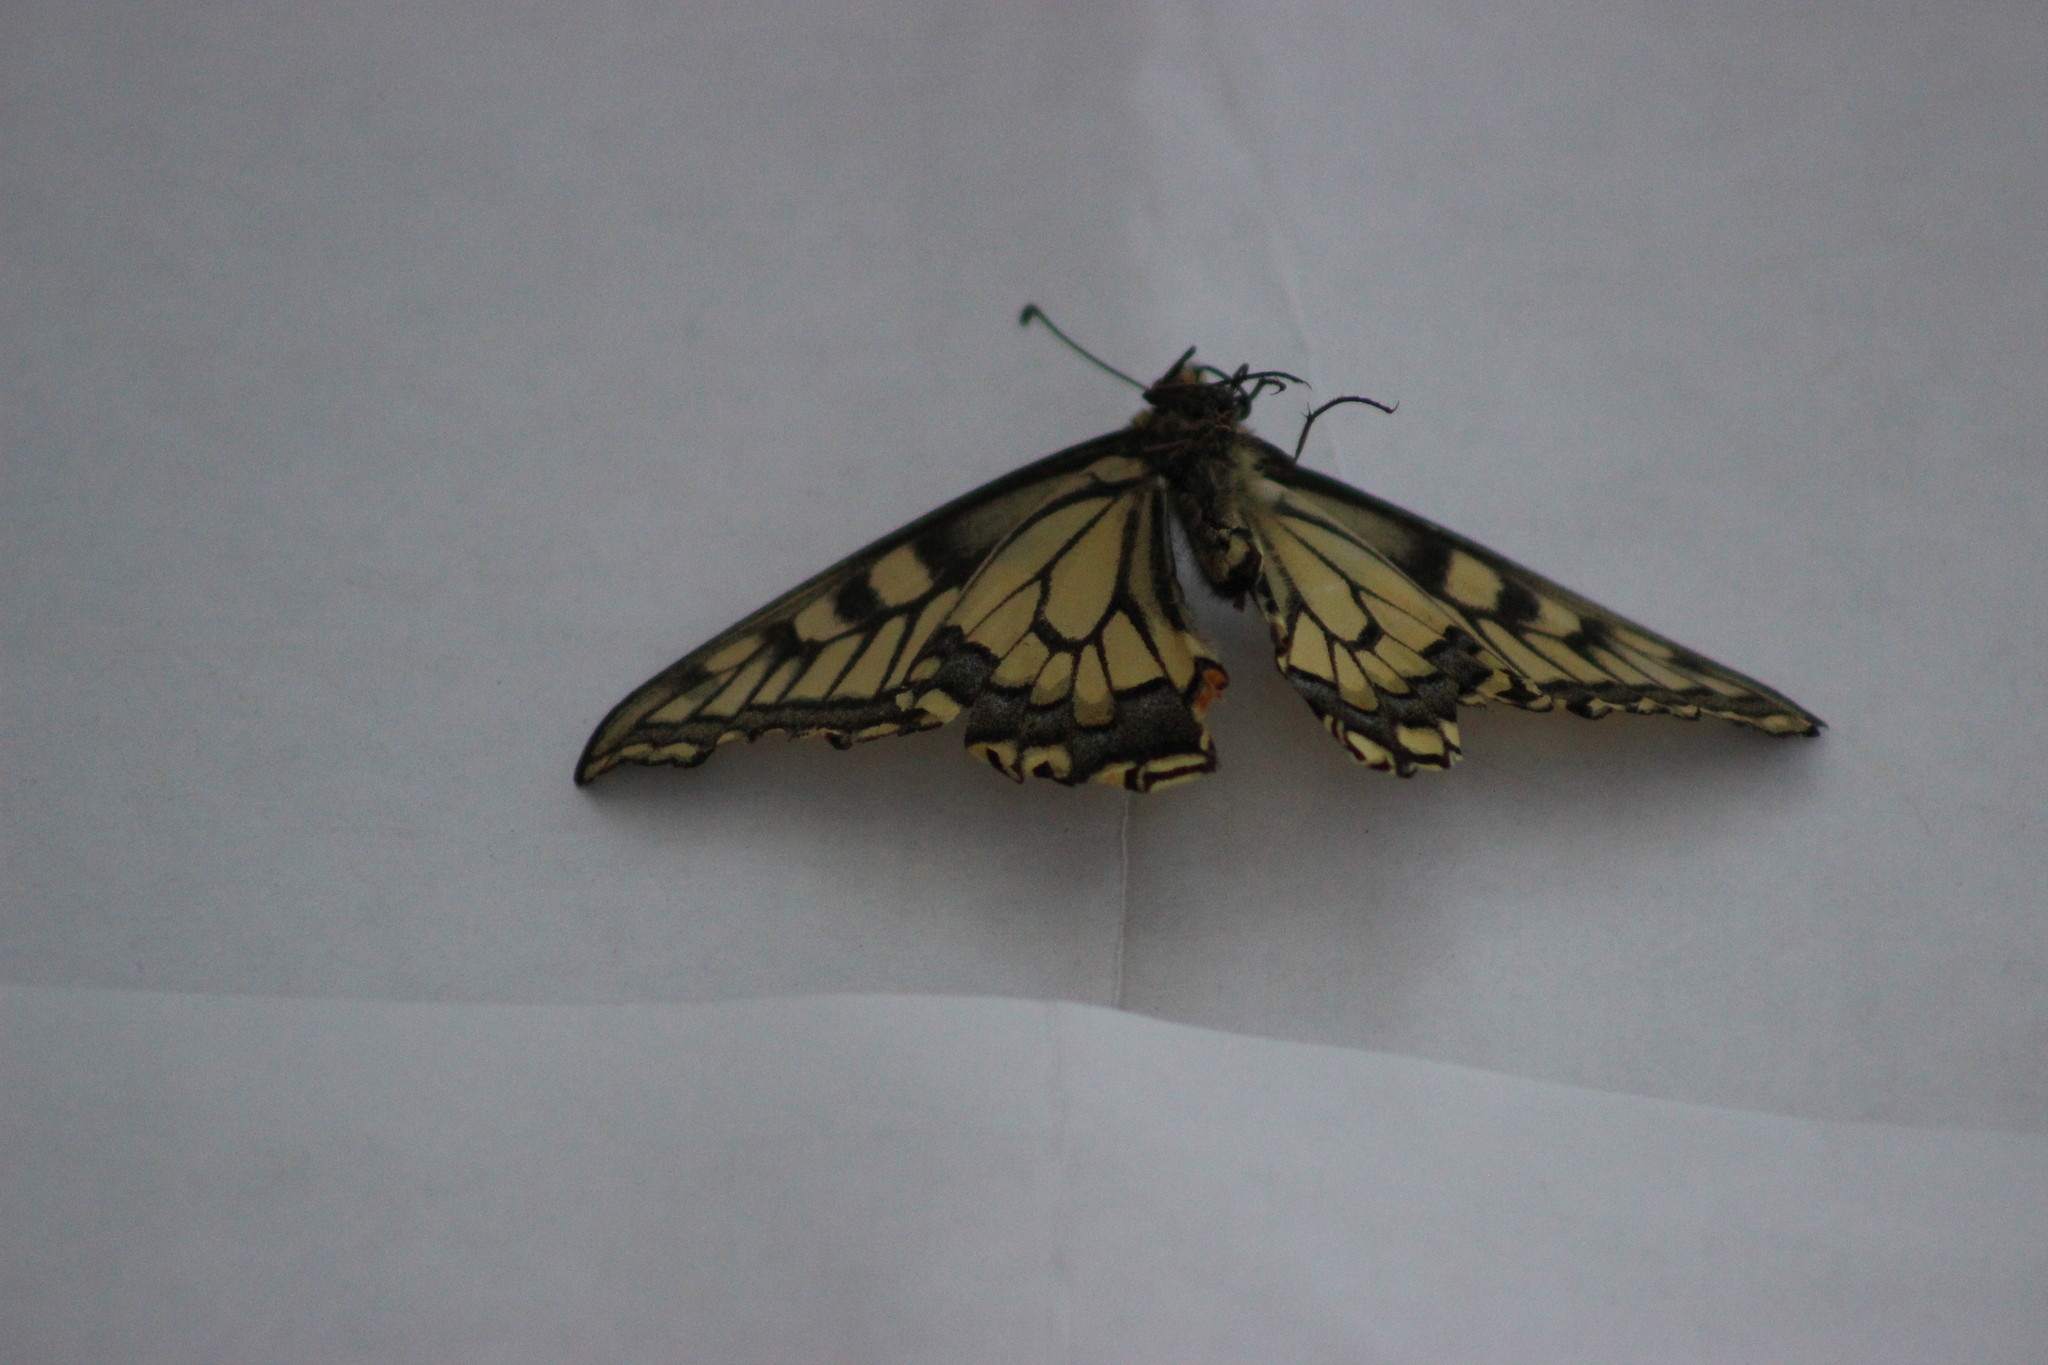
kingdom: Animalia
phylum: Arthropoda
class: Insecta
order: Lepidoptera
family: Papilionidae
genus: Papilio
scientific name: Papilio machaon
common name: Swallowtail
